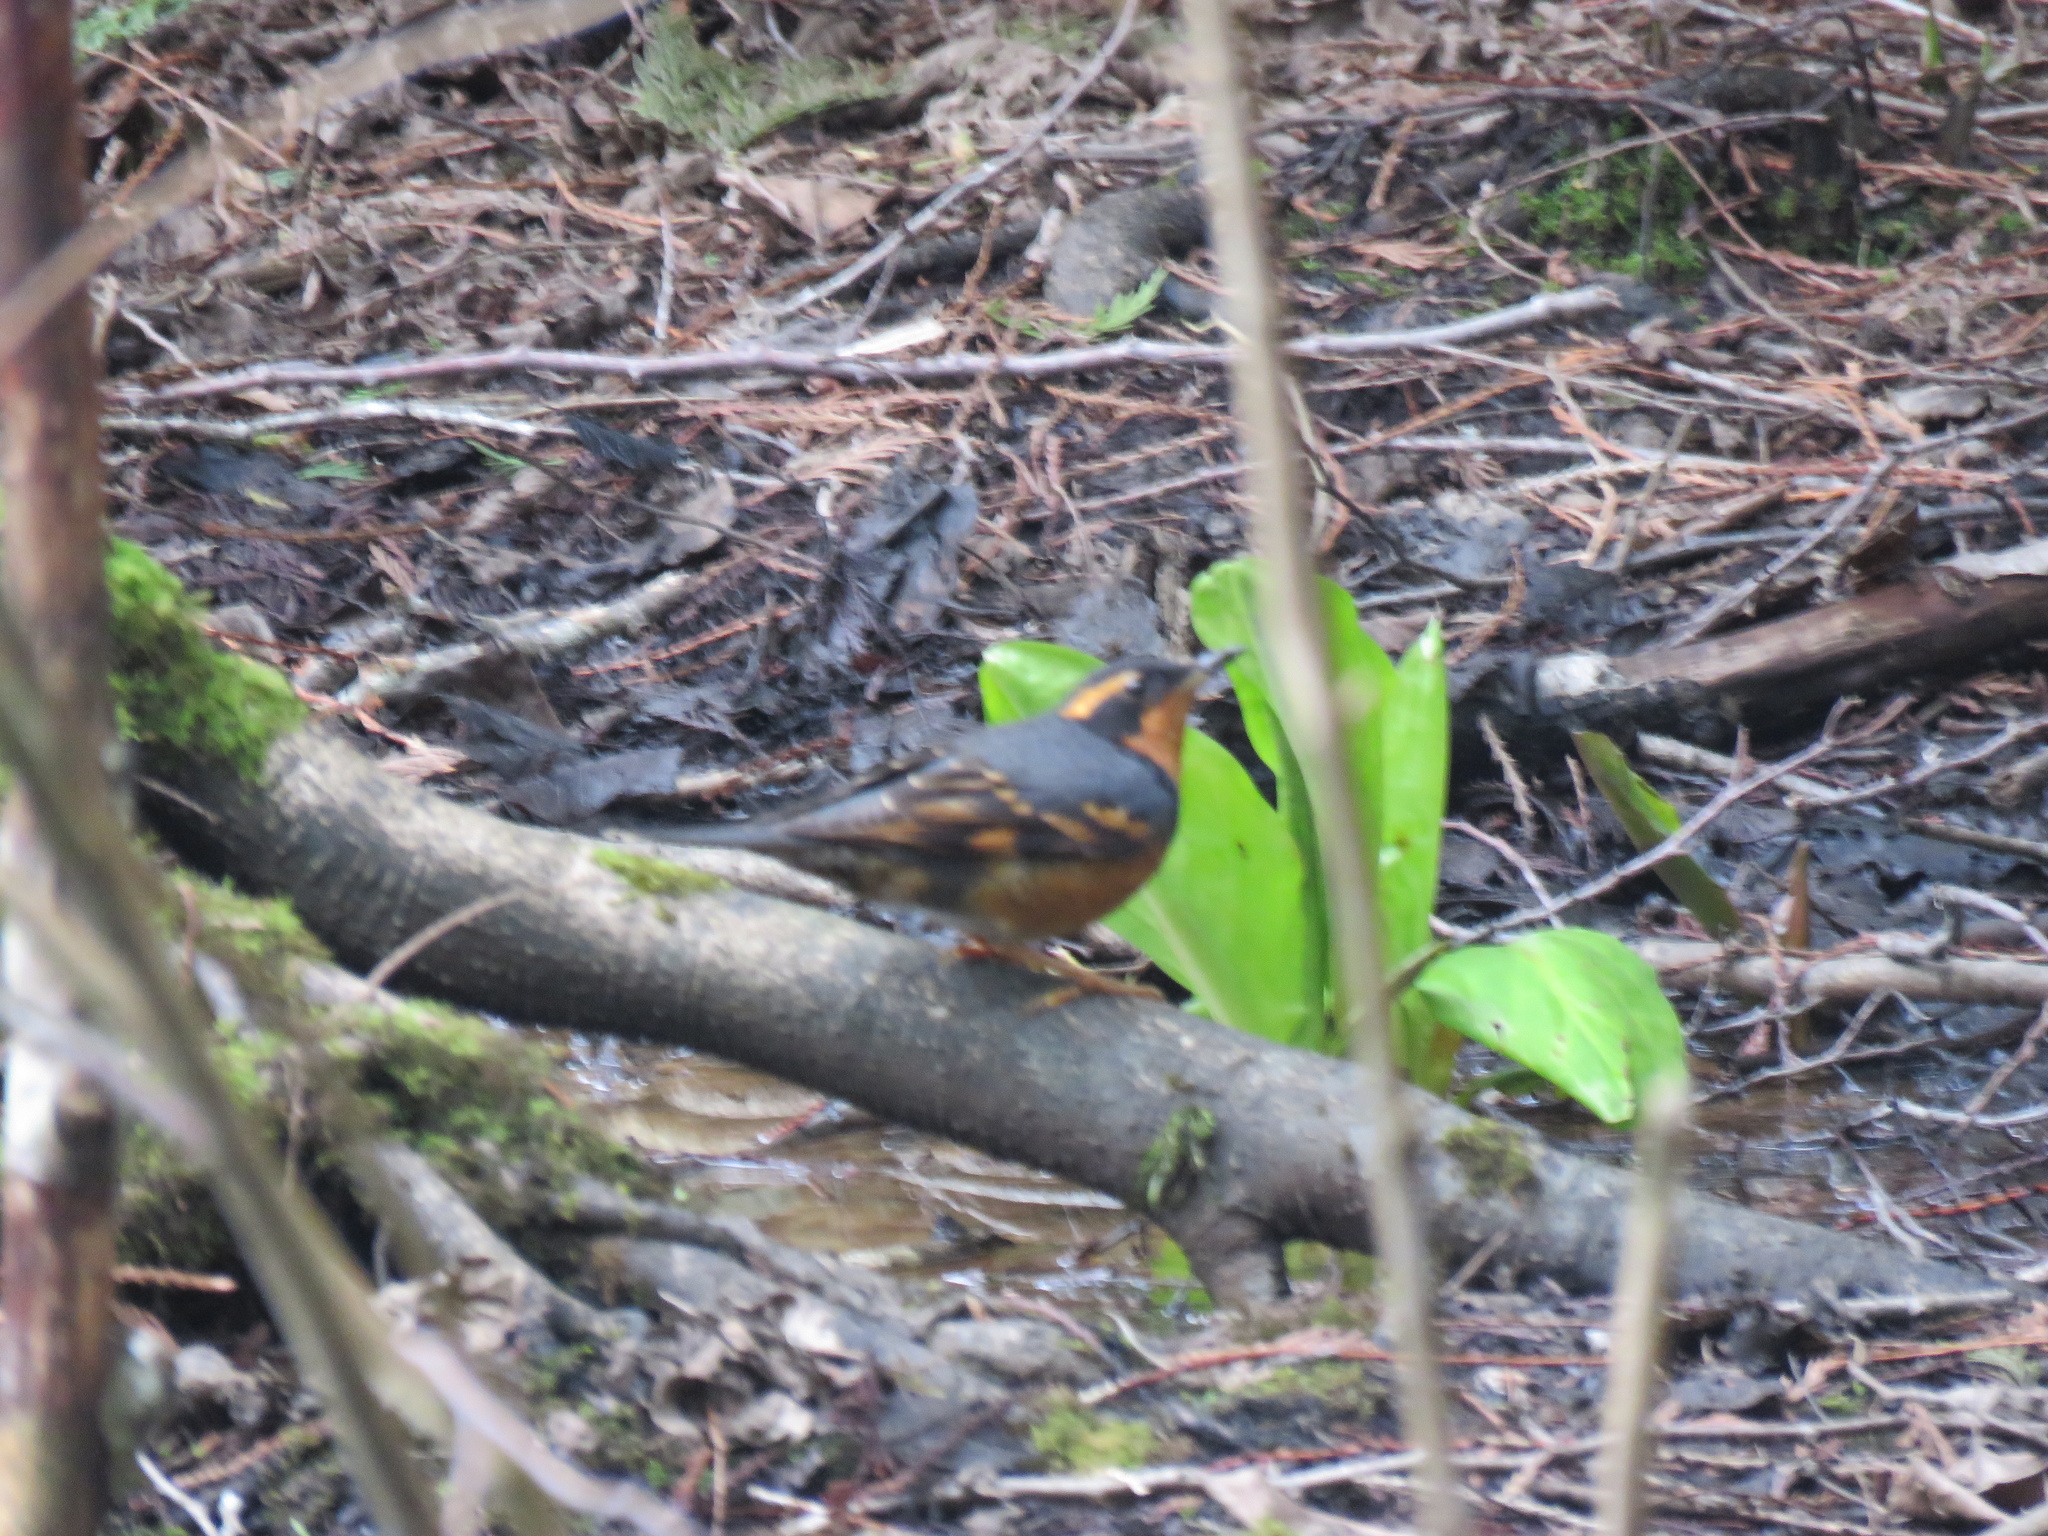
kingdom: Animalia
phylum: Chordata
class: Aves
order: Passeriformes
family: Turdidae
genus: Ixoreus
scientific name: Ixoreus naevius
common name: Varied thrush
